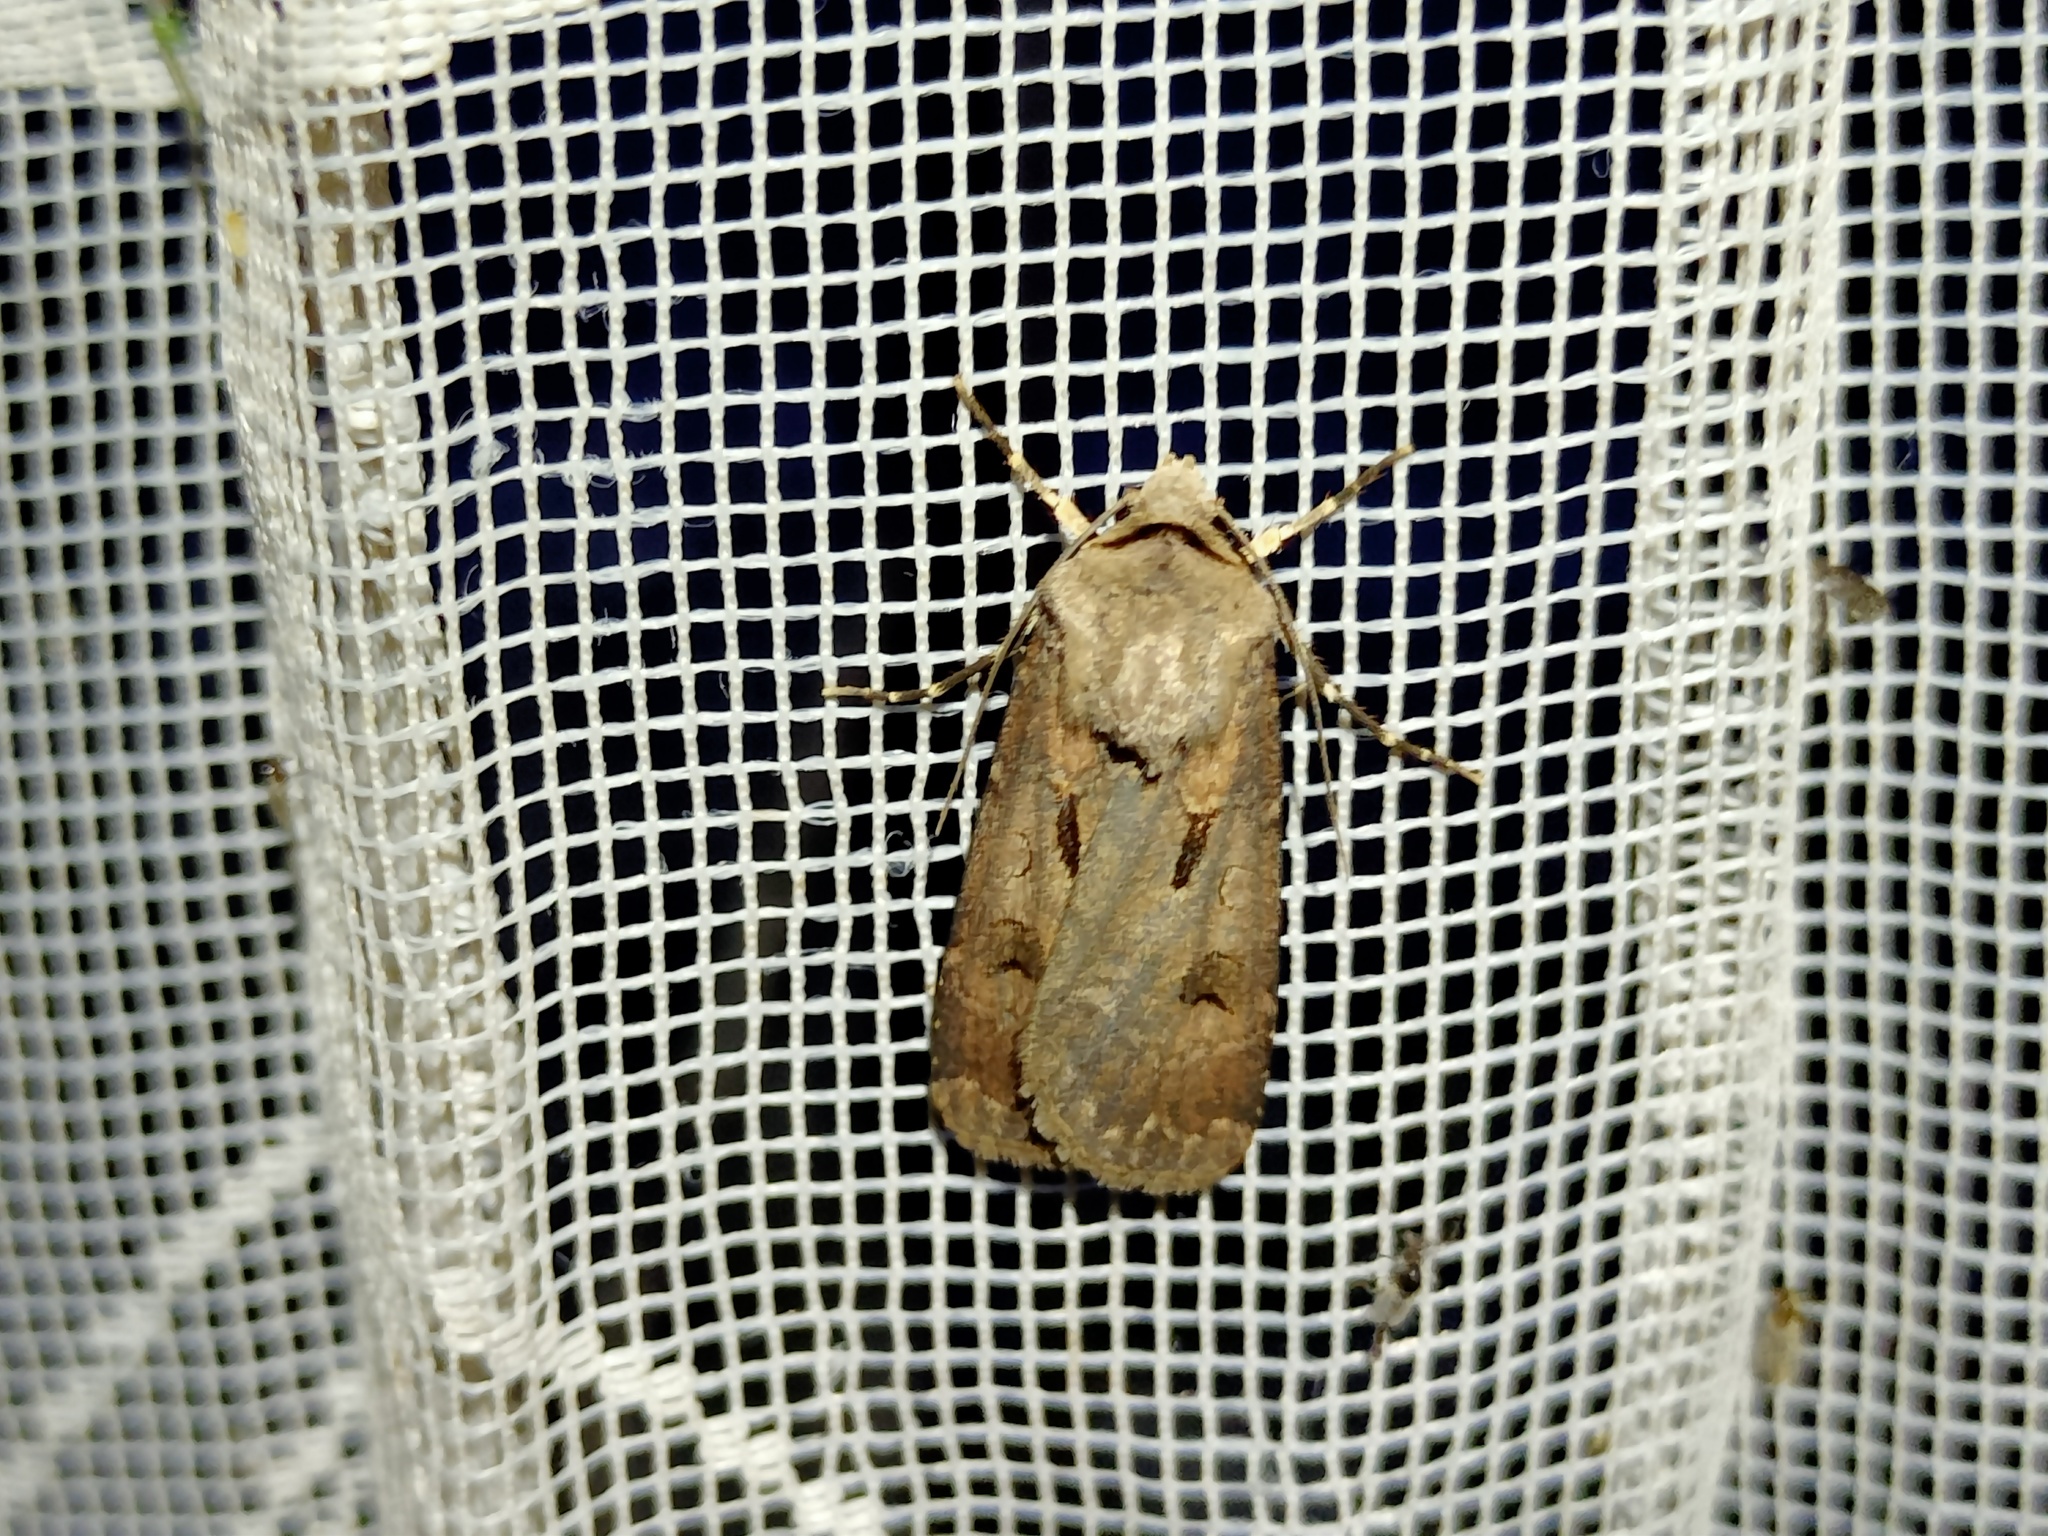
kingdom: Animalia
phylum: Arthropoda
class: Insecta
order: Lepidoptera
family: Noctuidae
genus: Agrotis
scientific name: Agrotis exclamationis
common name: Heart and dart
